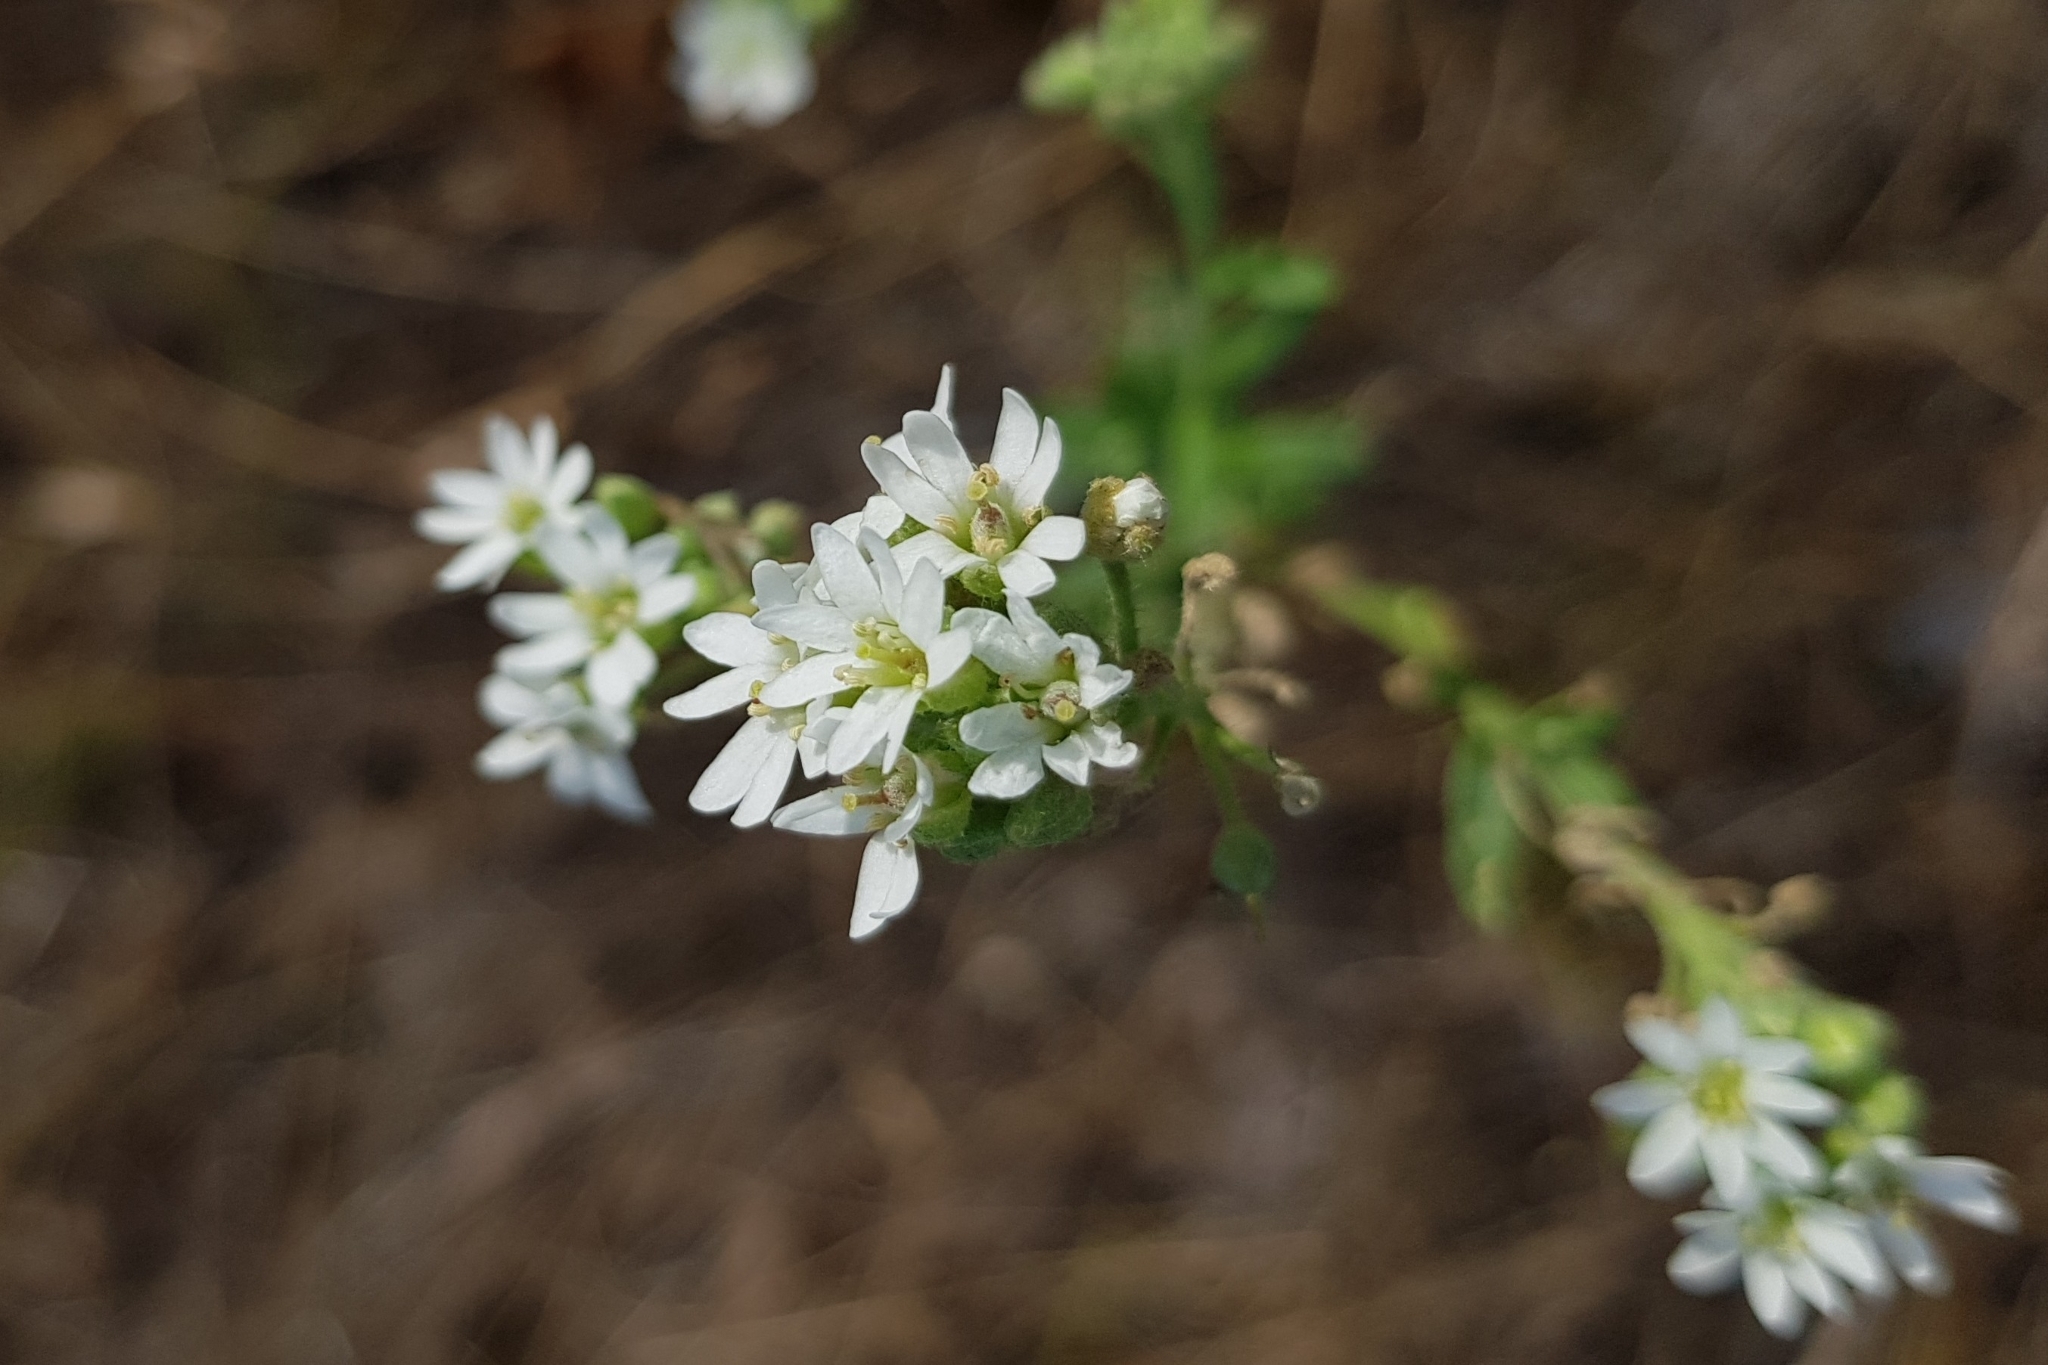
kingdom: Plantae
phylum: Tracheophyta
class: Magnoliopsida
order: Brassicales
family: Brassicaceae
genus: Berteroa
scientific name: Berteroa incana
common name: Hoary alison
